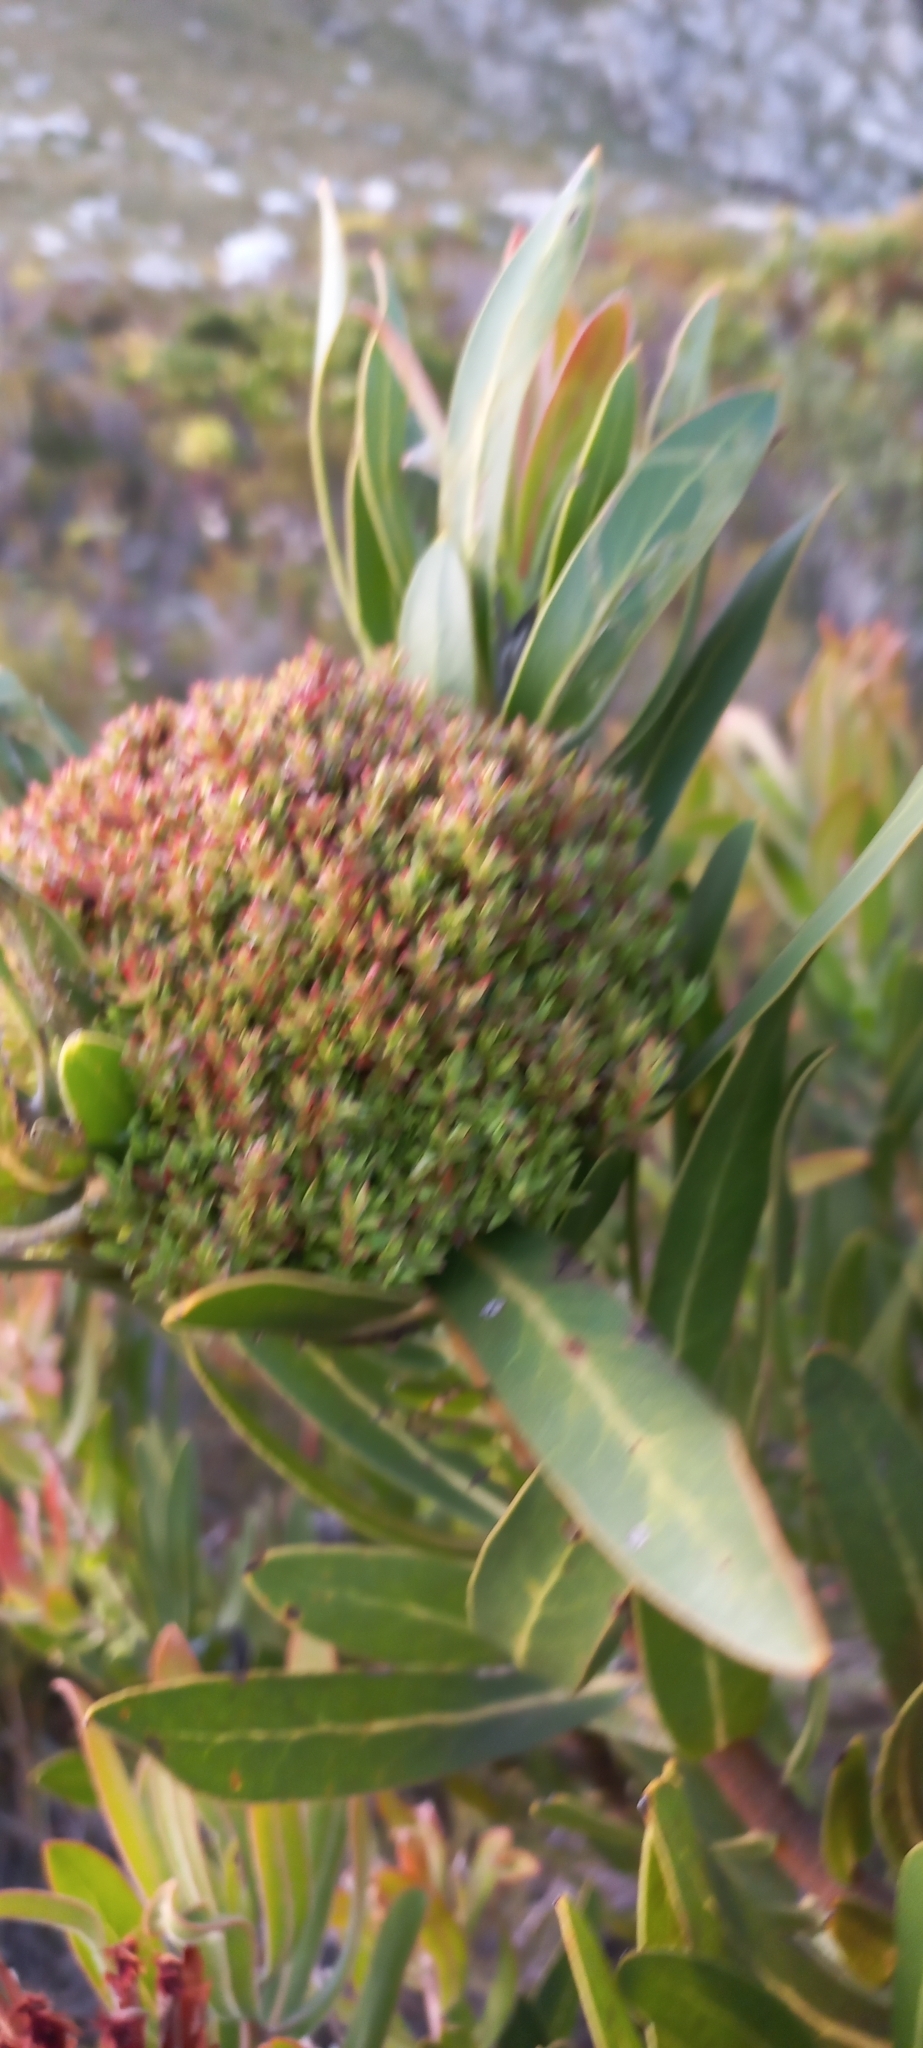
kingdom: Bacteria
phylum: Firmicutes
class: Bacilli
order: Acholeplasmatales
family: Acholeplasmataceae
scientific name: Acholeplasmataceae
